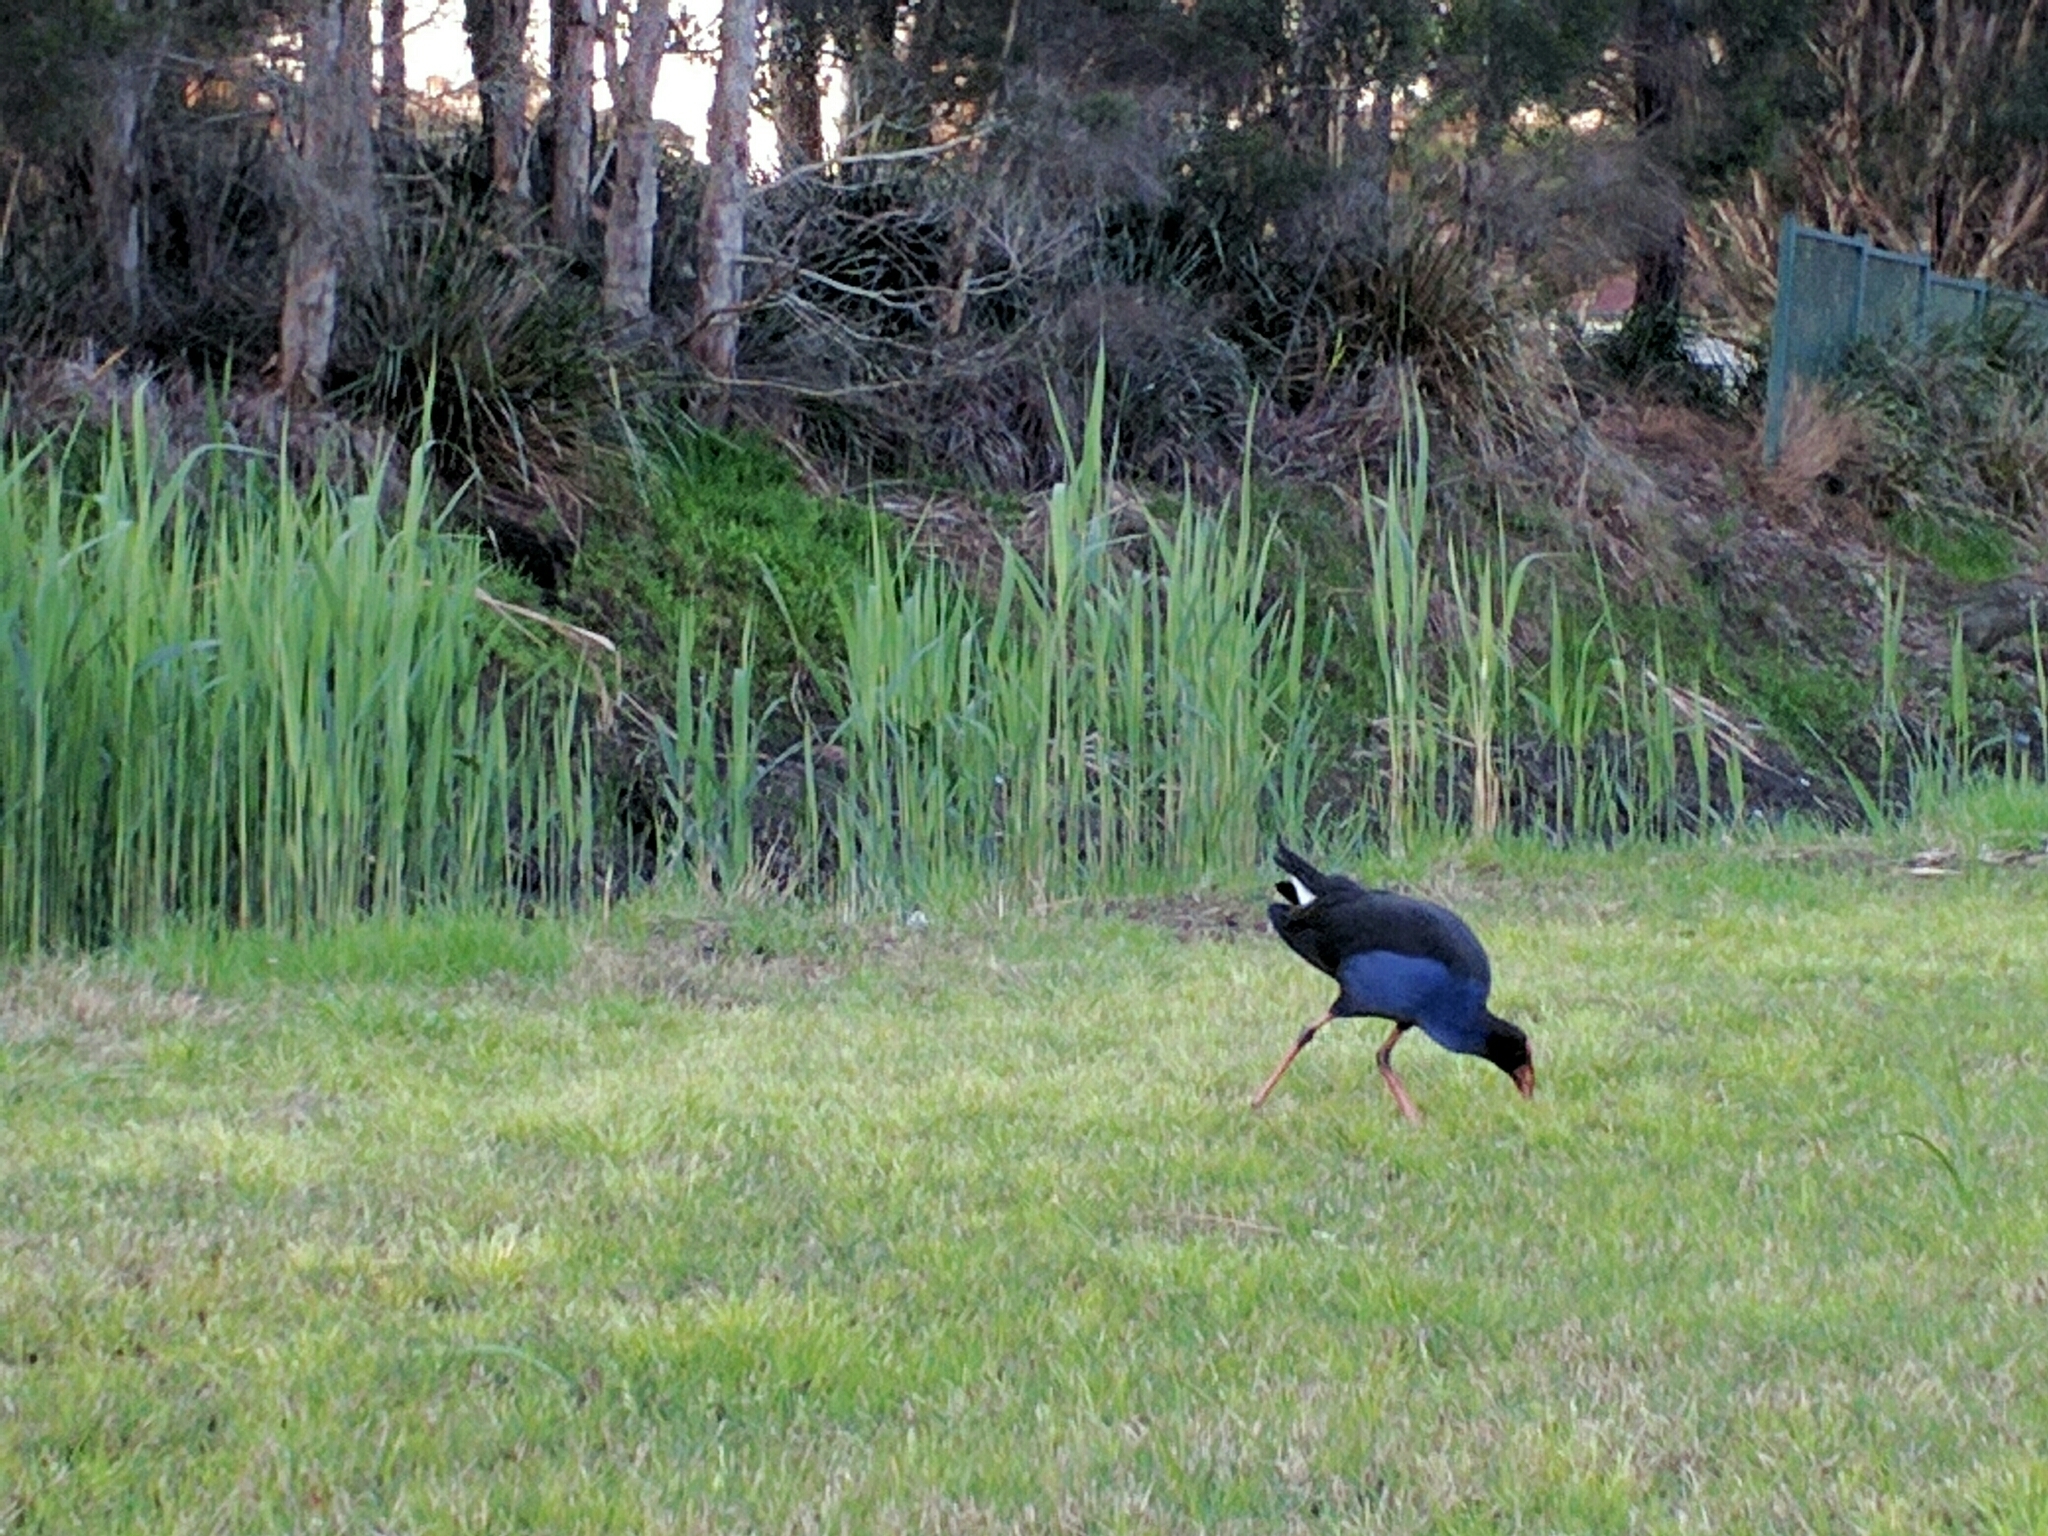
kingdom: Animalia
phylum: Chordata
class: Aves
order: Gruiformes
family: Rallidae
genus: Porphyrio
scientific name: Porphyrio melanotus
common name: Australasian swamphen
